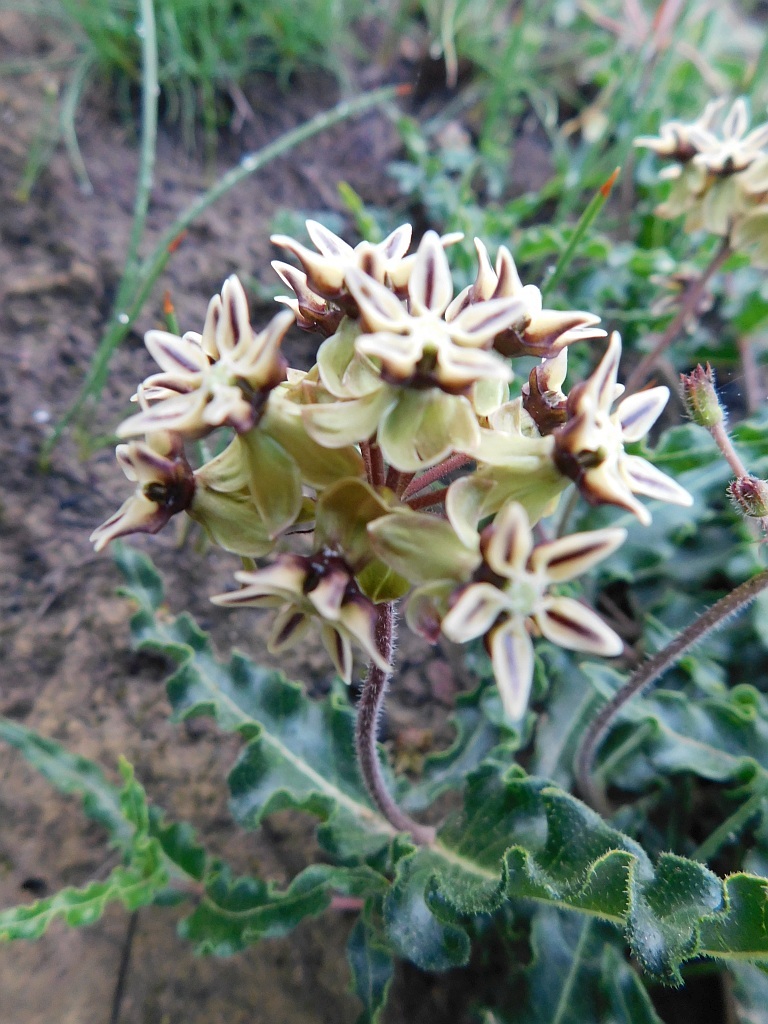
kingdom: Plantae
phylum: Tracheophyta
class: Magnoliopsida
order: Gentianales
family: Apocynaceae
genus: Asclepias
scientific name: Asclepias crispa
